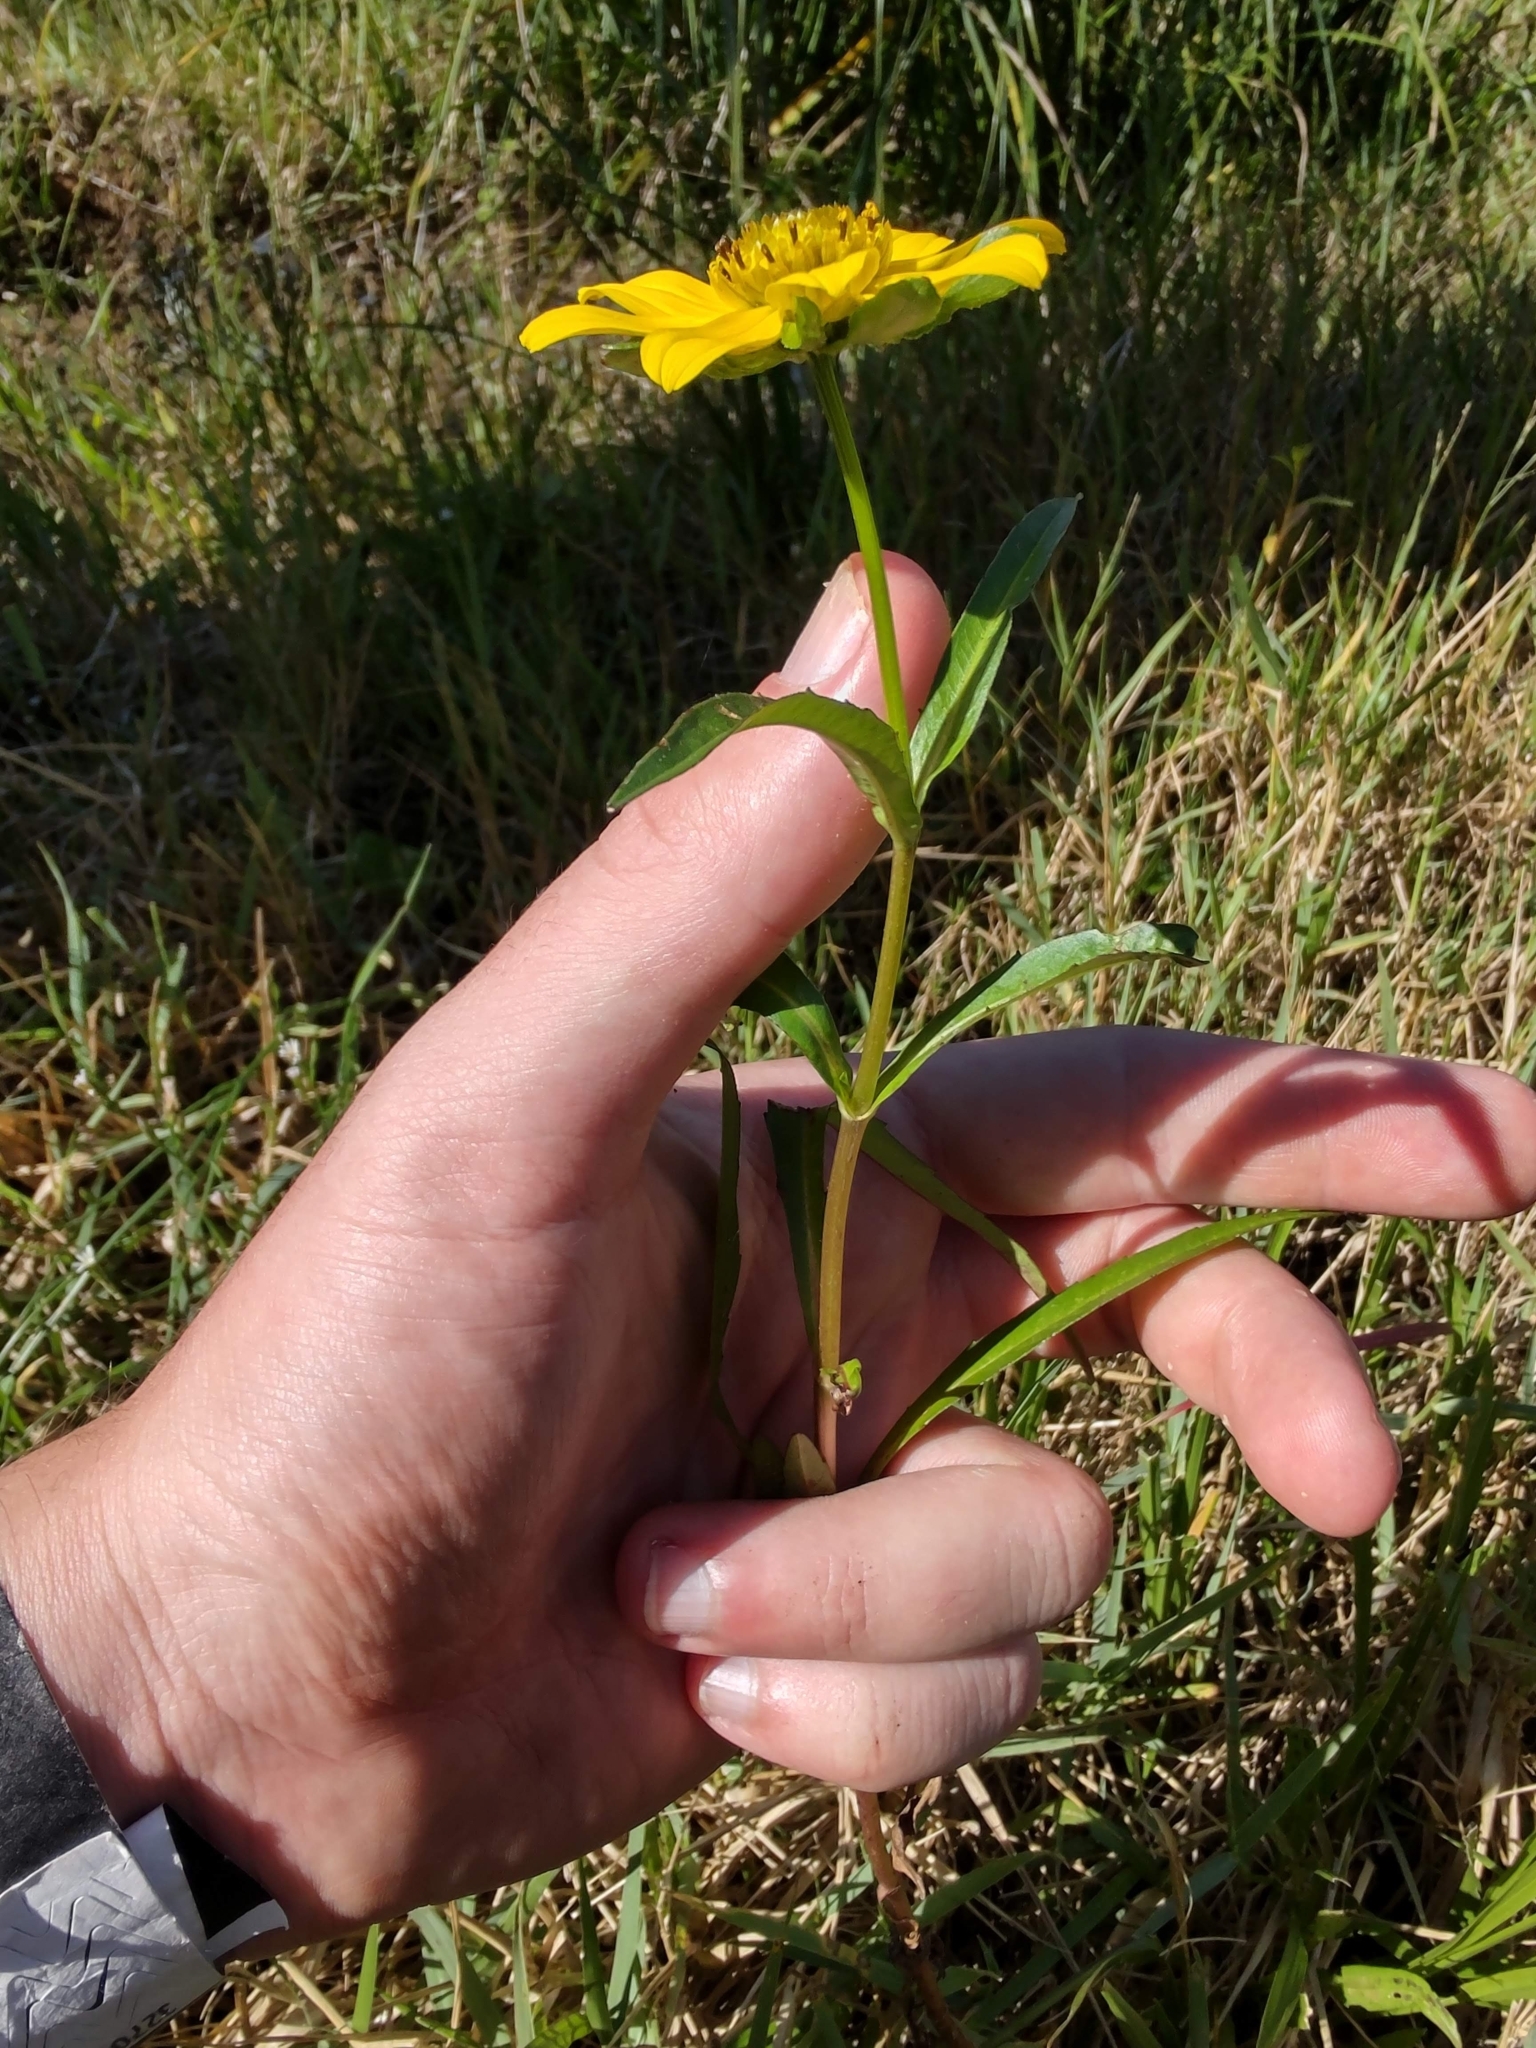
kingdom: Plantae
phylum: Tracheophyta
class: Magnoliopsida
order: Asterales
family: Asteraceae
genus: Bidens
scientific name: Bidens laevis
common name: Larger bur-marigold
